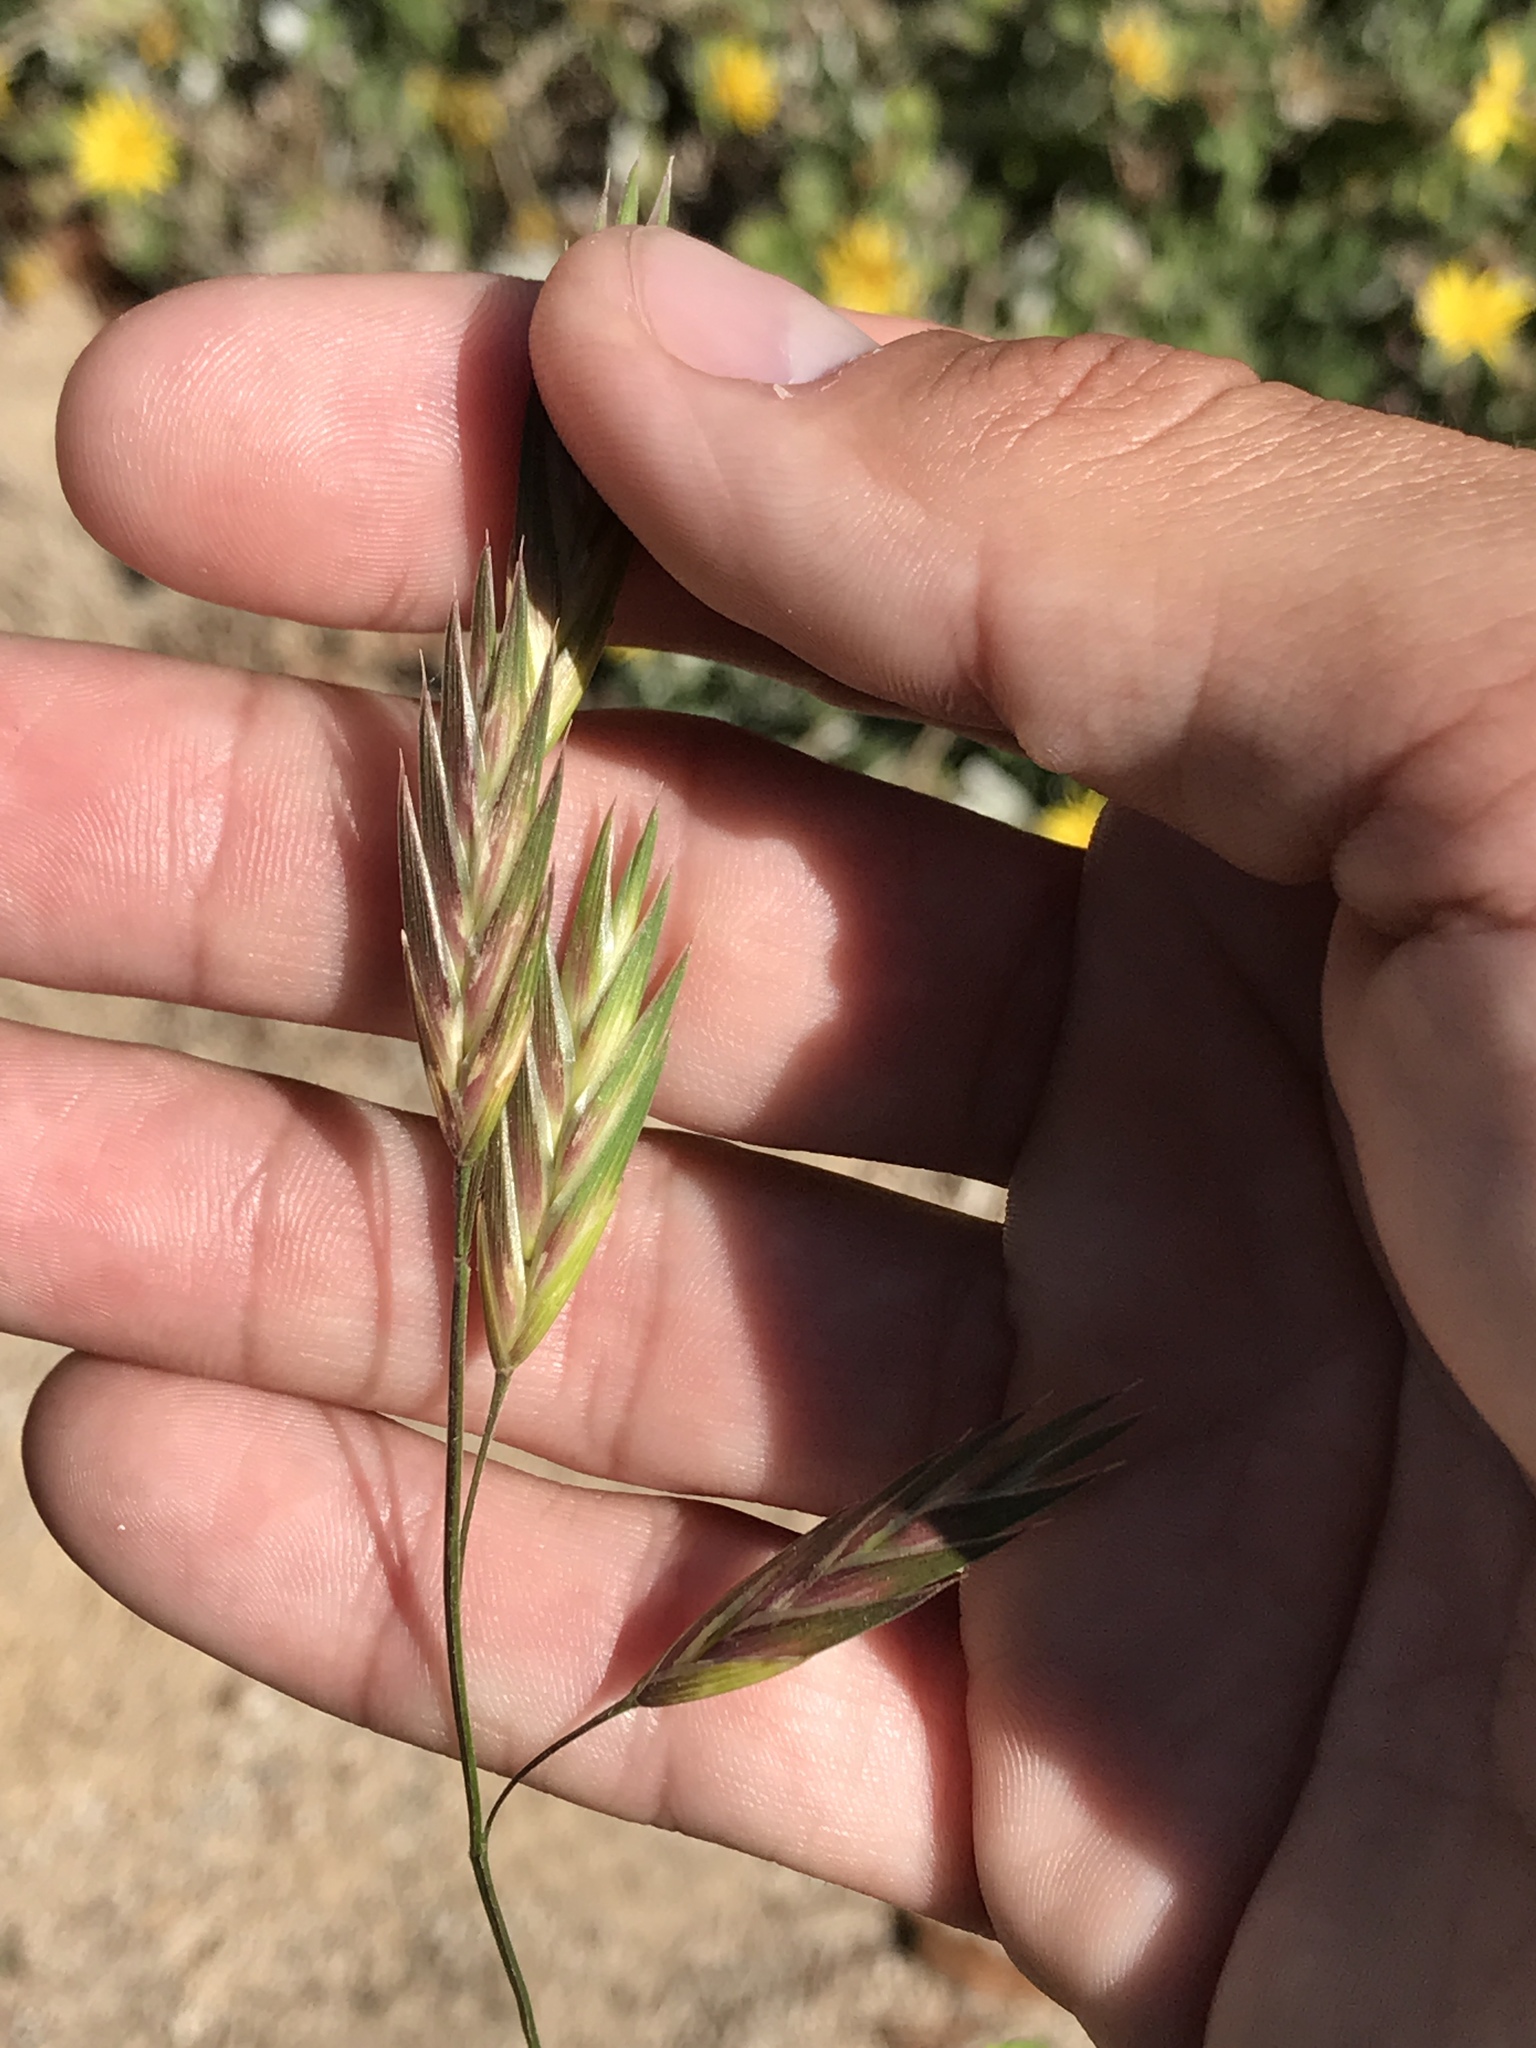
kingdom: Plantae
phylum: Tracheophyta
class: Liliopsida
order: Poales
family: Poaceae
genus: Bromus
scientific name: Bromus catharticus
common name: Rescuegrass
